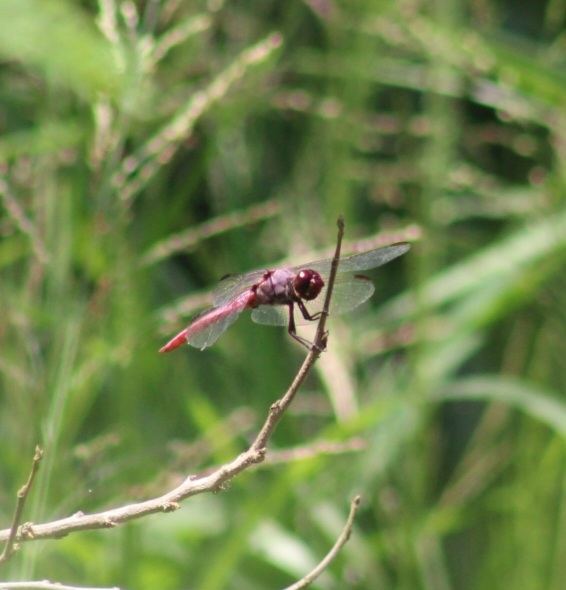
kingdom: Animalia
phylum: Arthropoda
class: Insecta
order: Odonata
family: Libellulidae
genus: Orthemis
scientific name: Orthemis ferruginea
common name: Roseate skimmer
